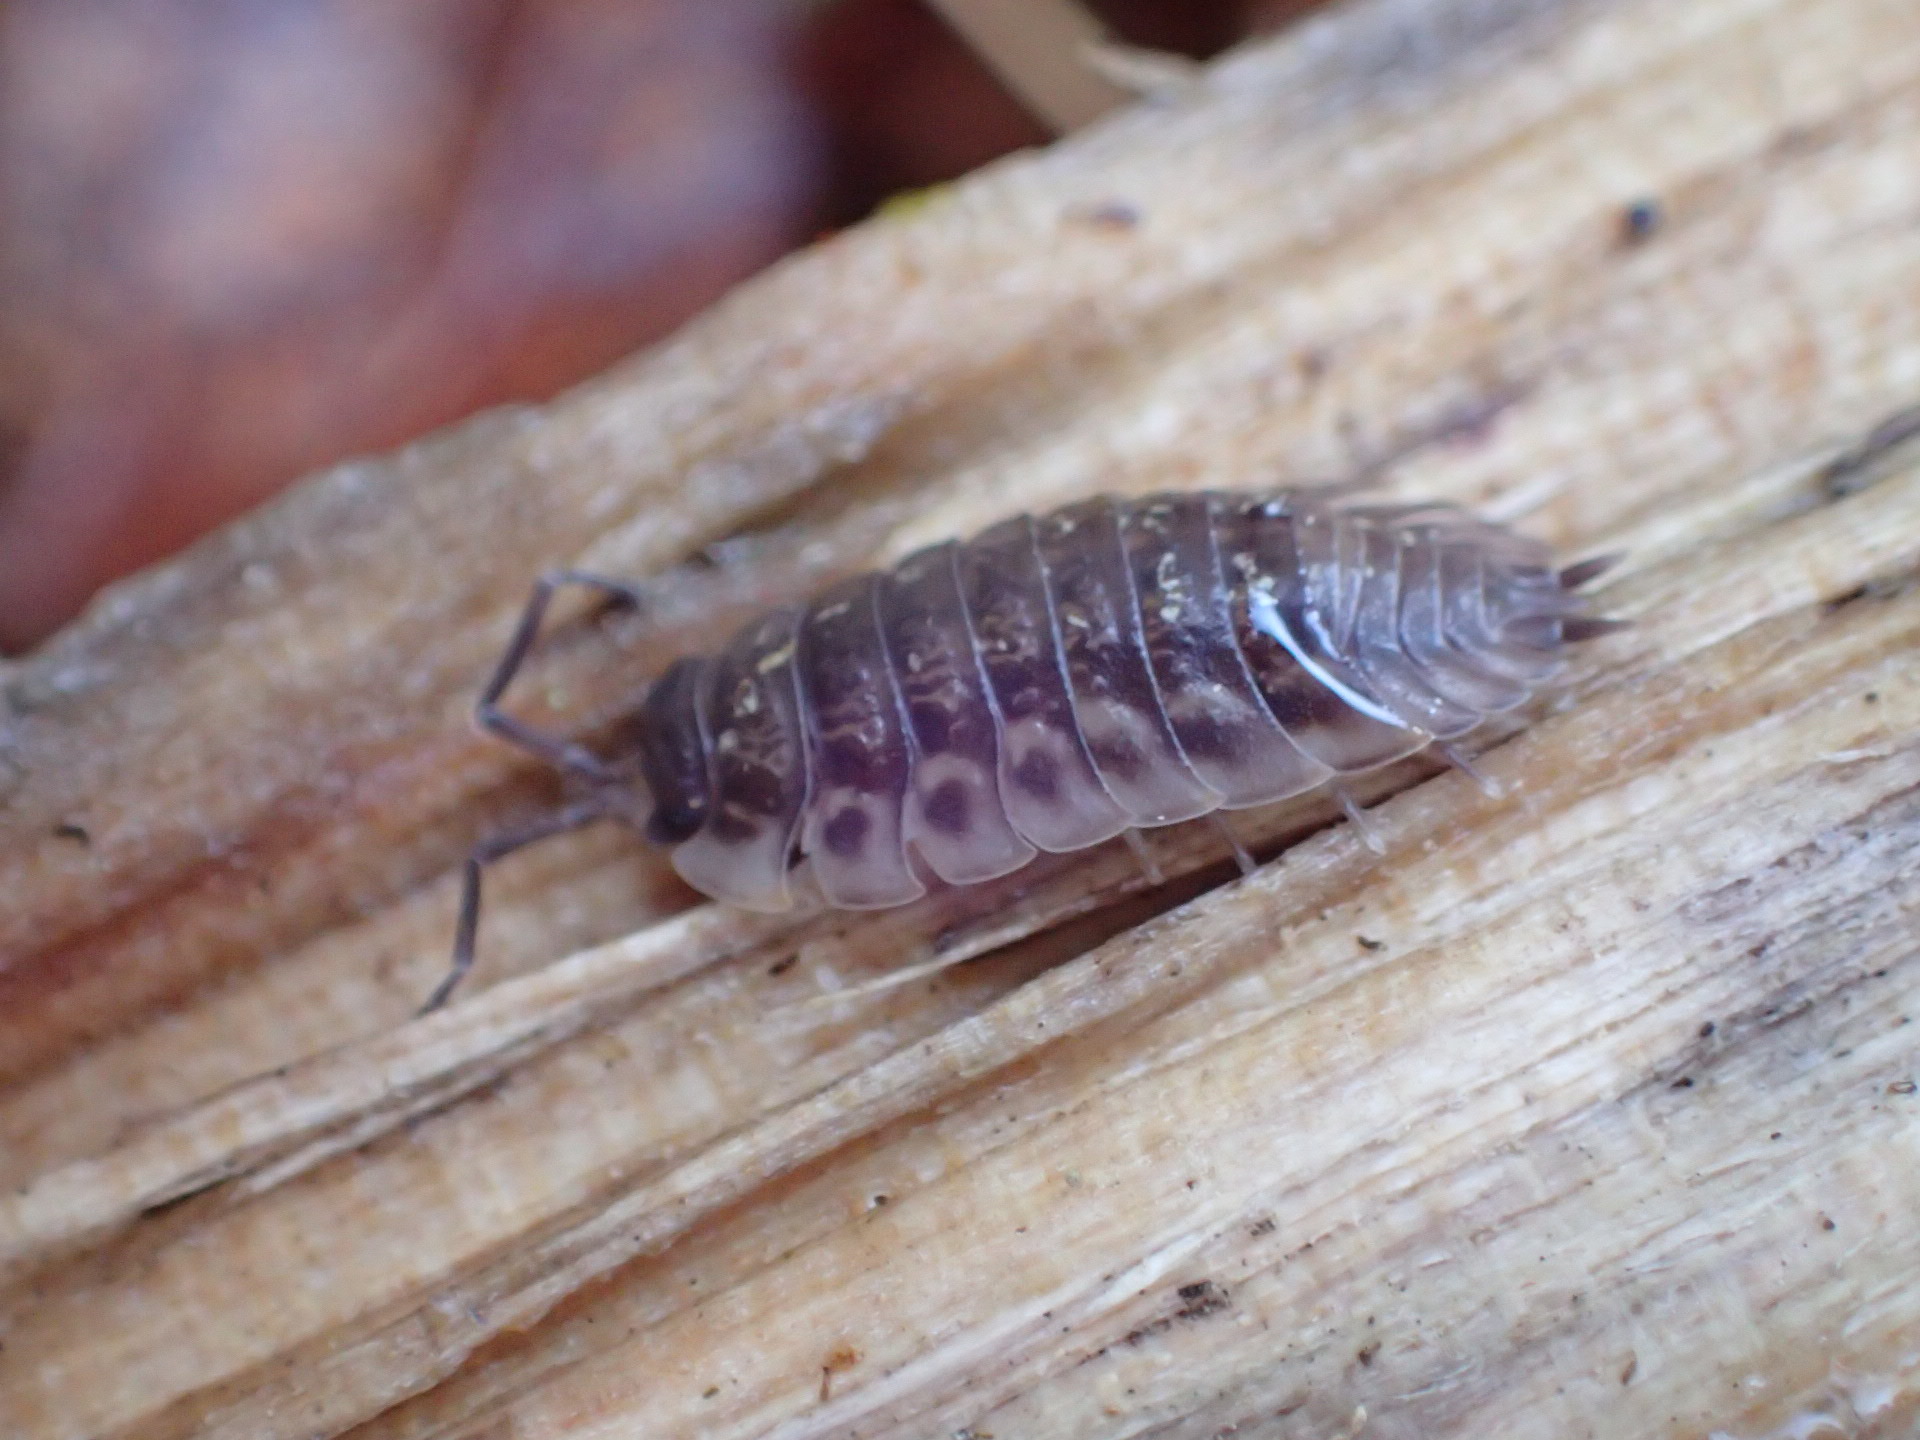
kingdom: Animalia
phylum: Arthropoda
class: Malacostraca
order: Isopoda
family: Porcellionidae
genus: Porcellio
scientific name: Porcellio scaber
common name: Common rough woodlouse
